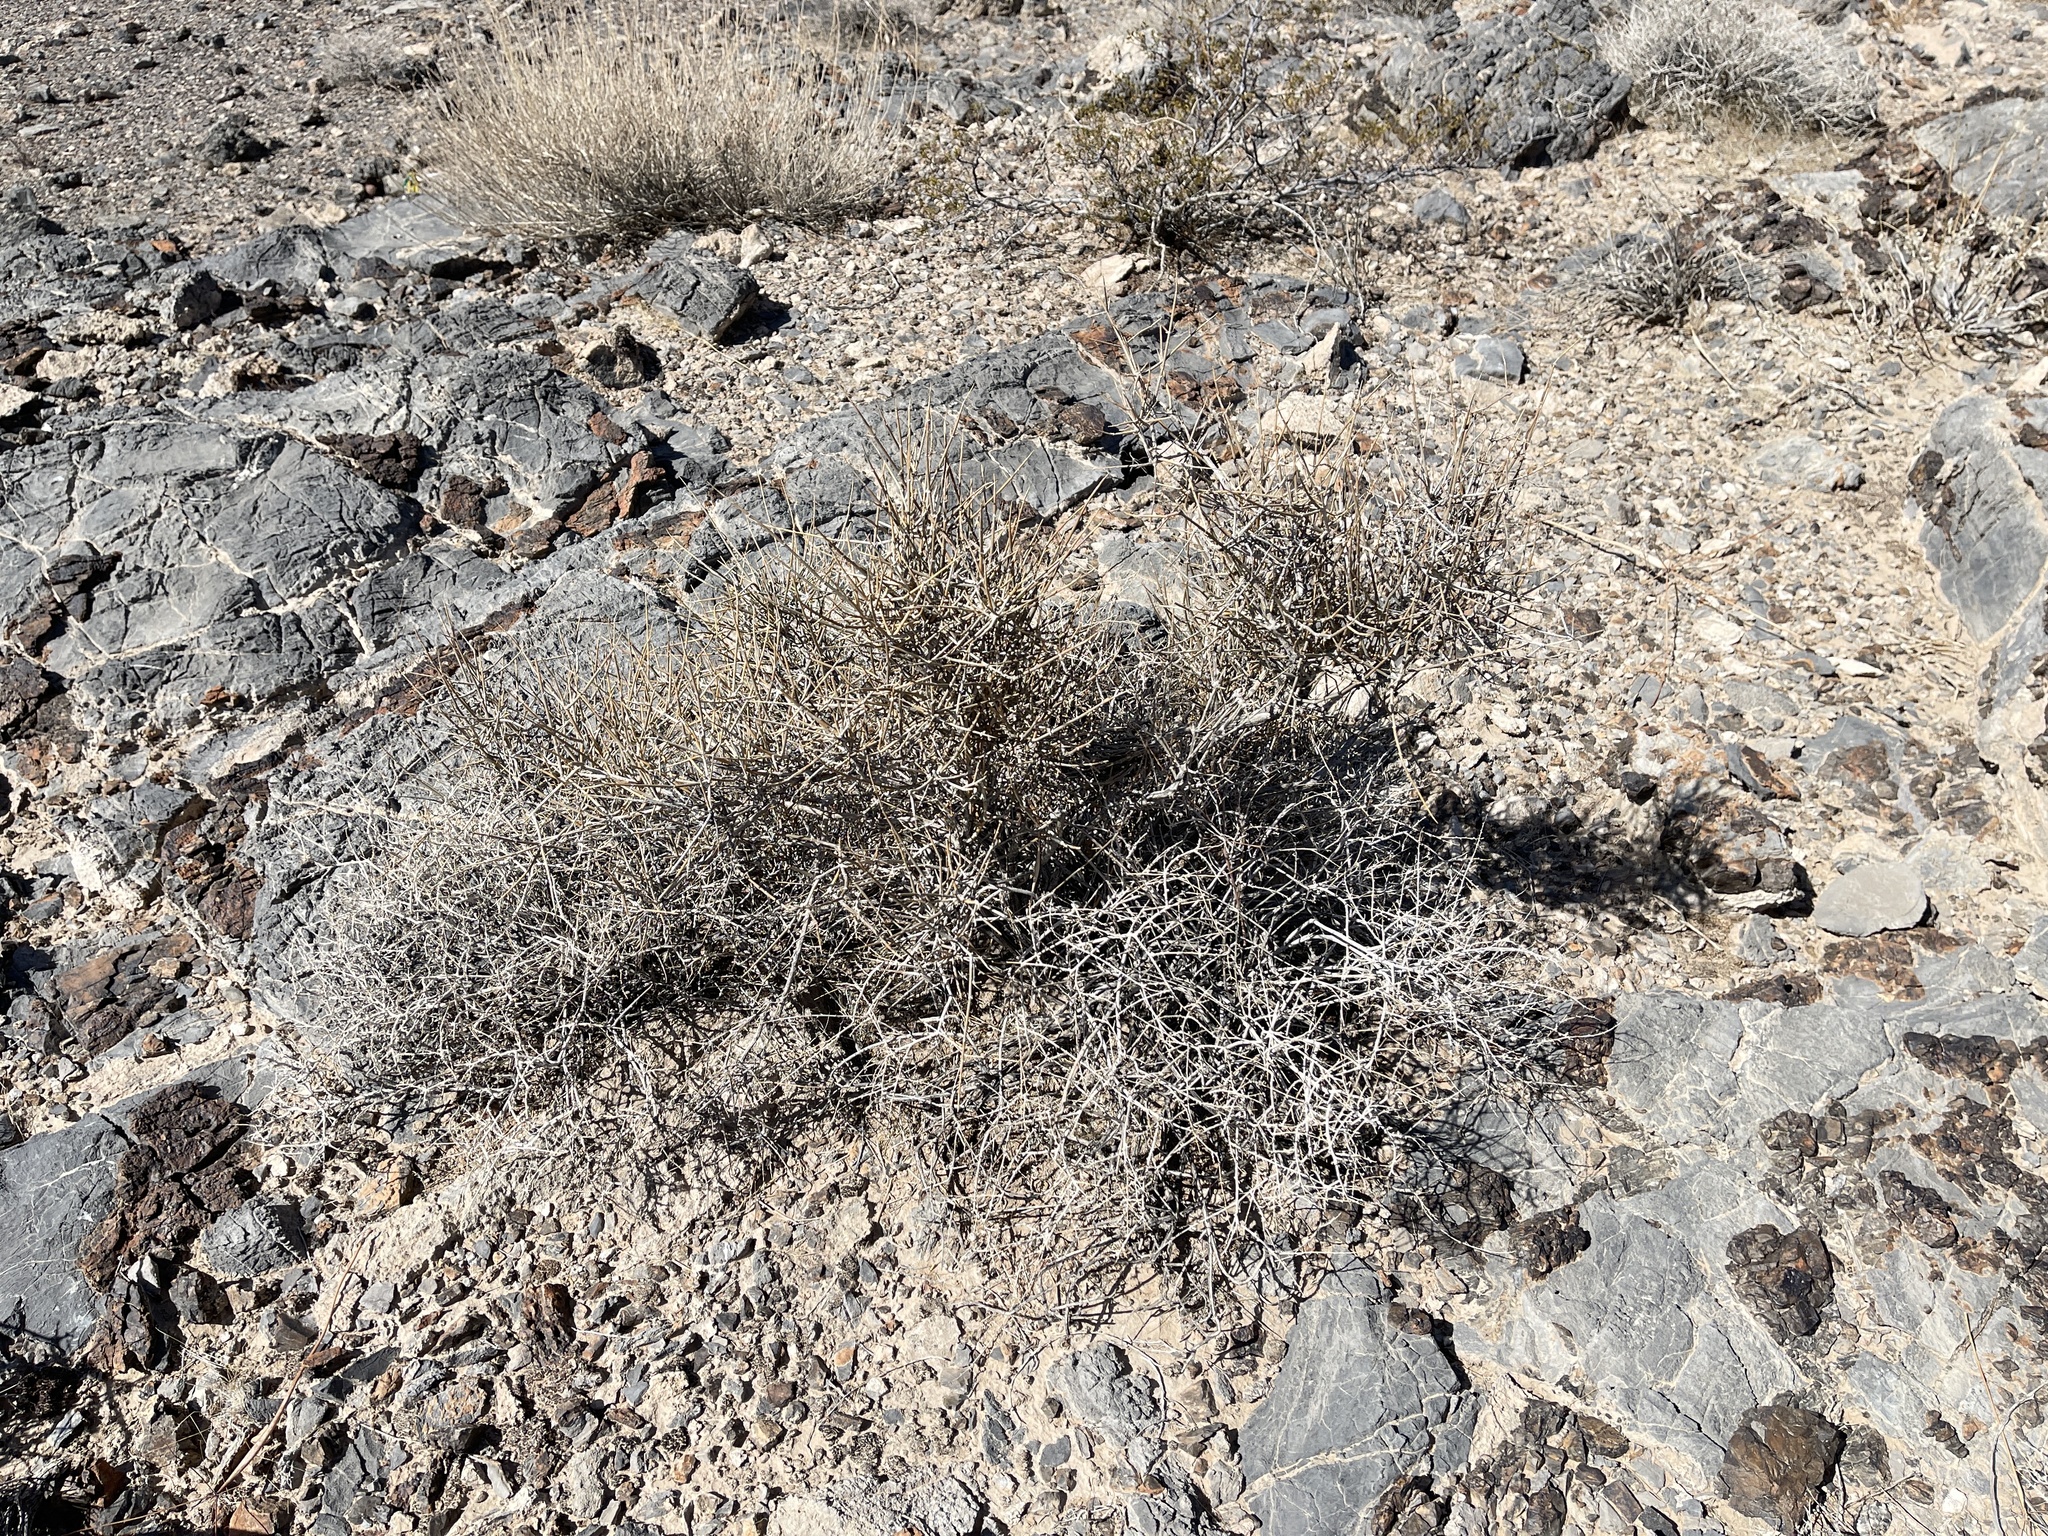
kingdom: Plantae
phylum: Tracheophyta
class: Gnetopsida
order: Ephedrales
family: Ephedraceae
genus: Ephedra
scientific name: Ephedra nevadensis
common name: Gray ephedra
